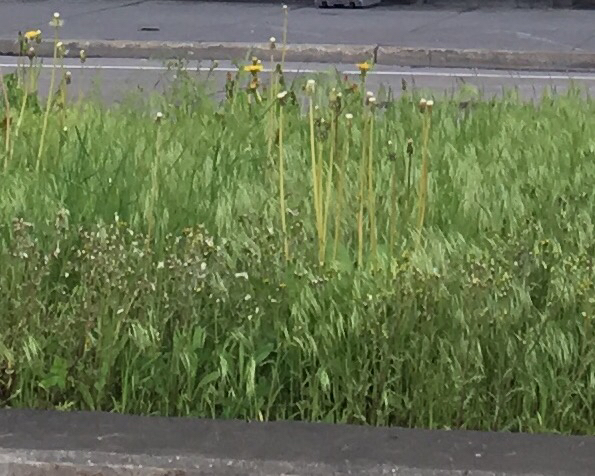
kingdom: Plantae
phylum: Tracheophyta
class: Liliopsida
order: Poales
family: Poaceae
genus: Bromus
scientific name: Bromus tectorum
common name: Cheatgrass
